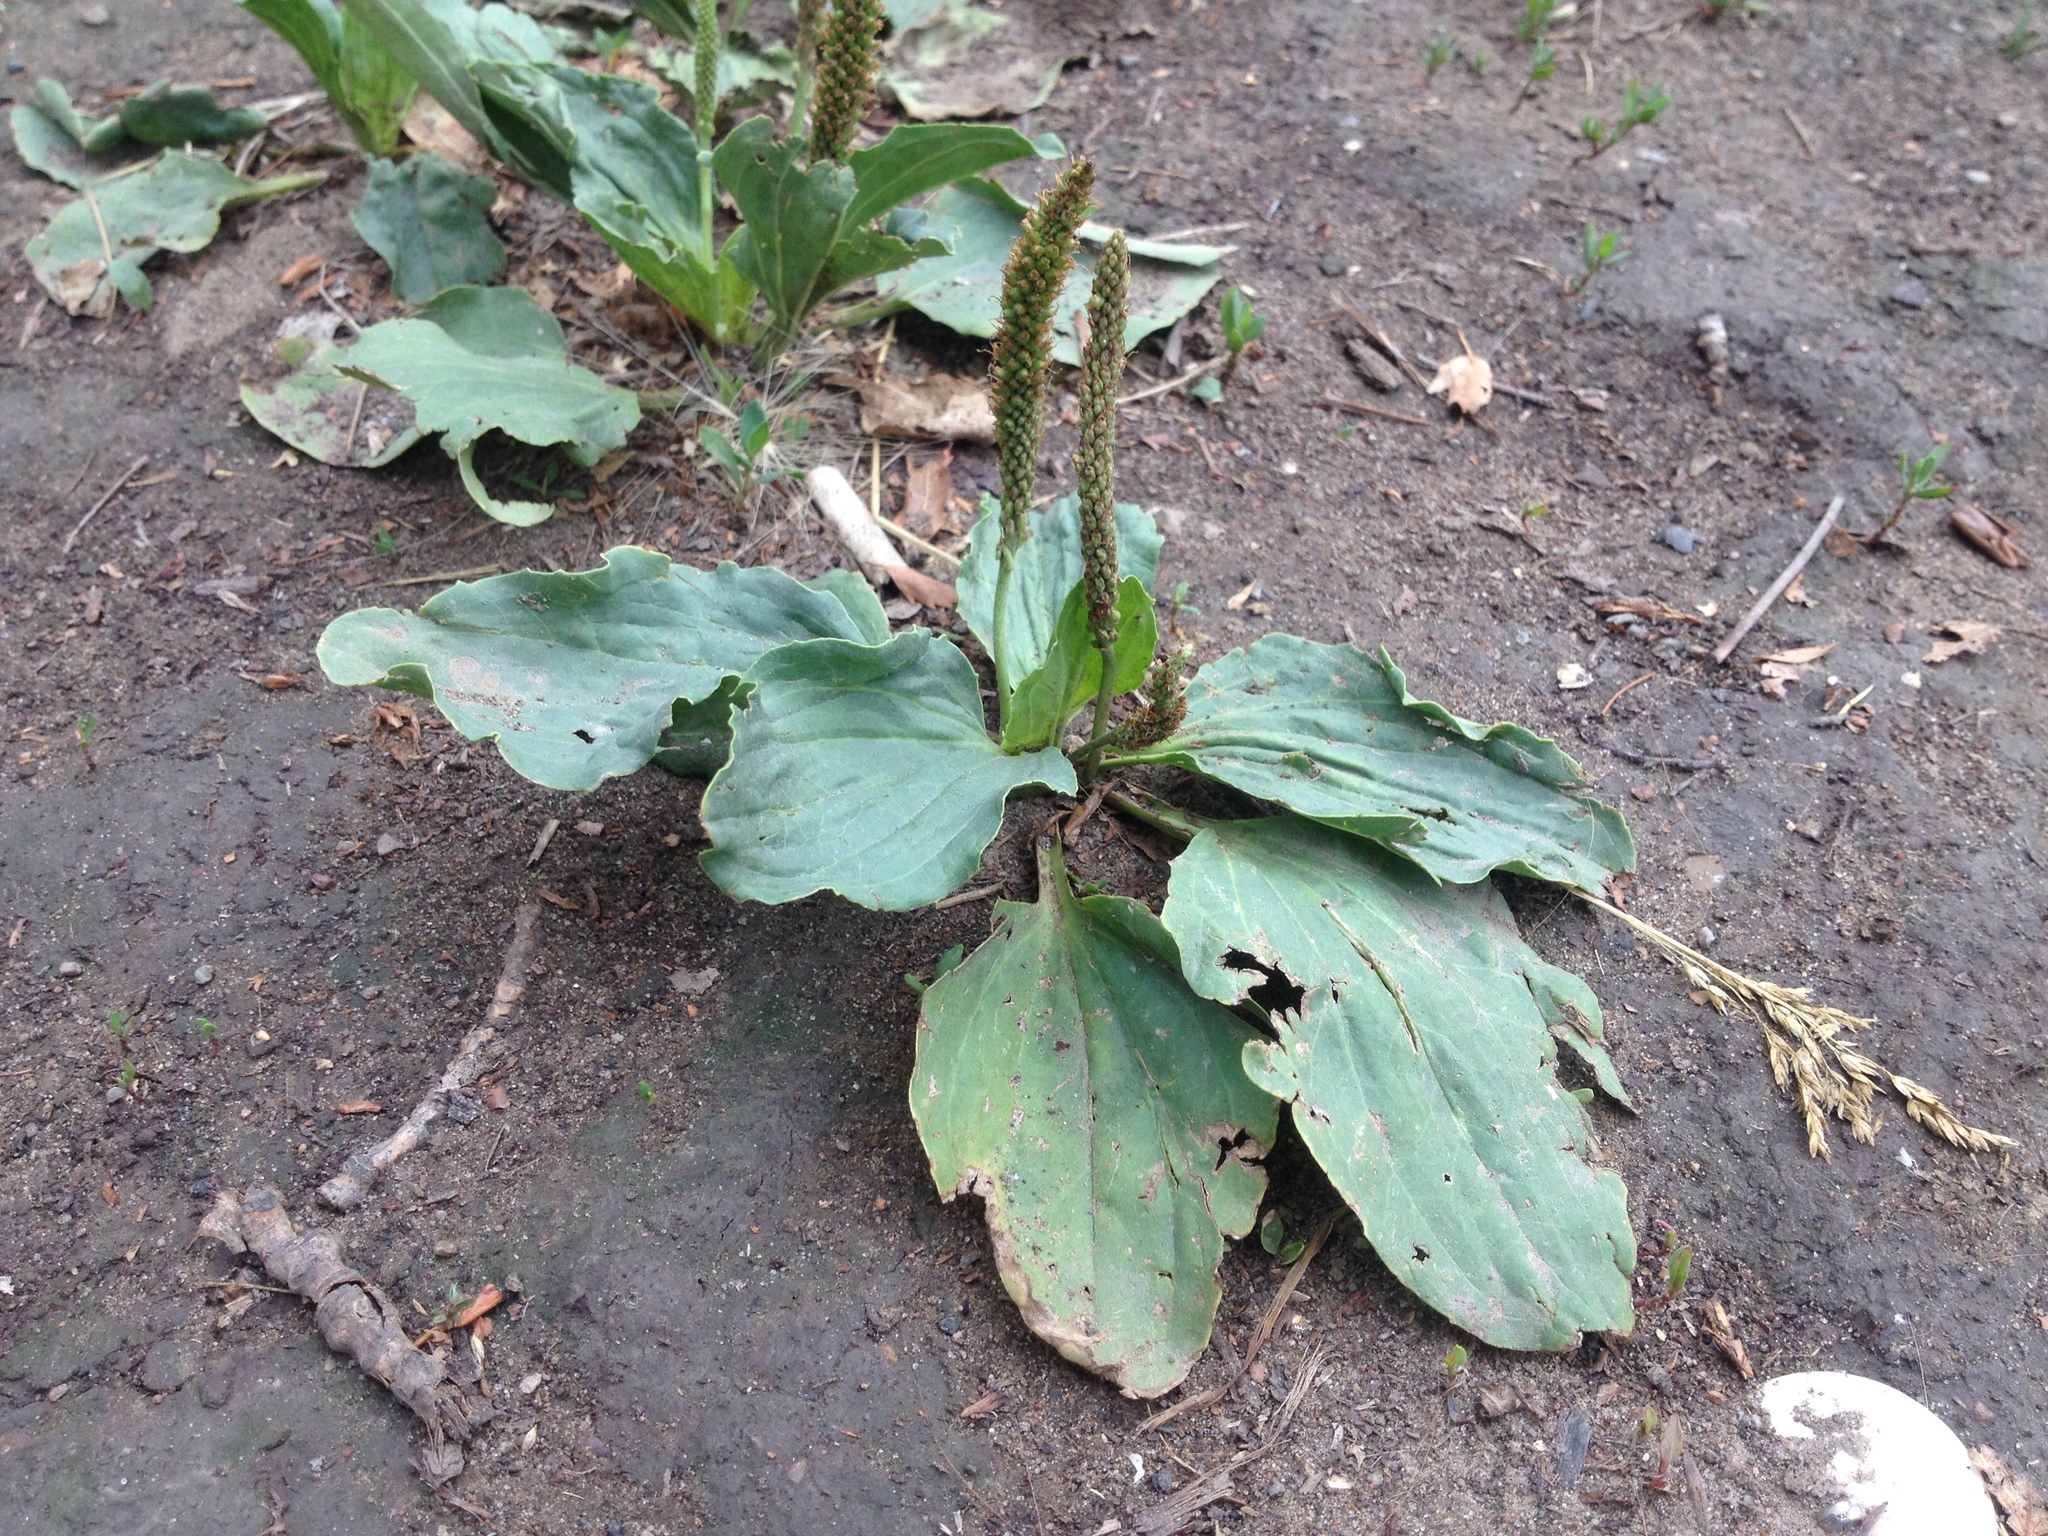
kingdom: Plantae
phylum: Tracheophyta
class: Magnoliopsida
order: Lamiales
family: Plantaginaceae
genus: Plantago
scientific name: Plantago major
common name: Common plantain
